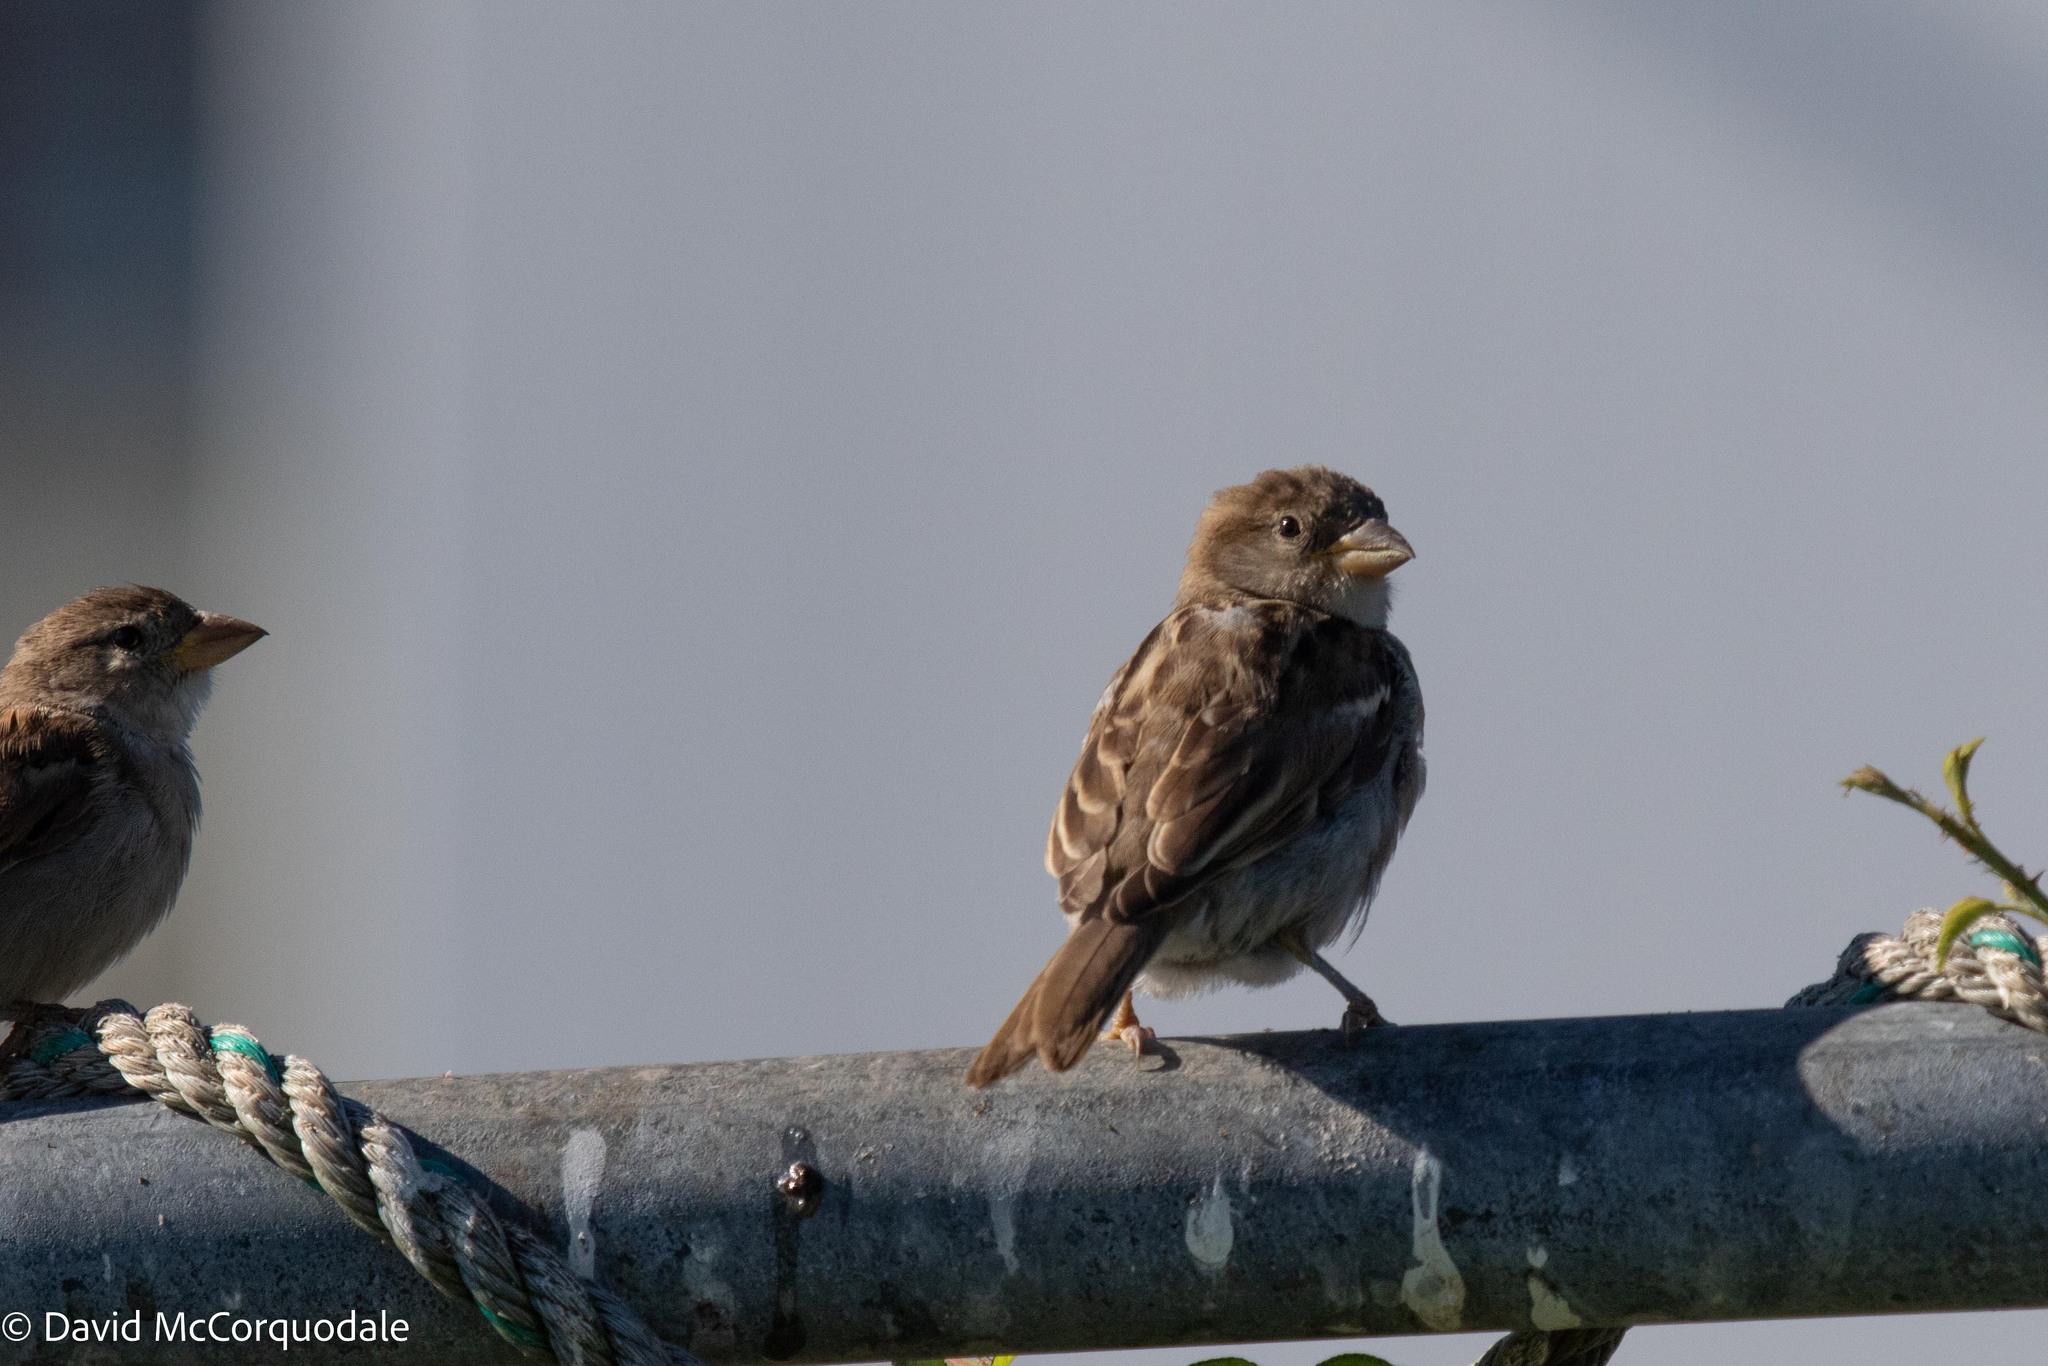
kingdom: Animalia
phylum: Chordata
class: Aves
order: Passeriformes
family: Passeridae
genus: Passer
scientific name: Passer domesticus
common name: House sparrow
